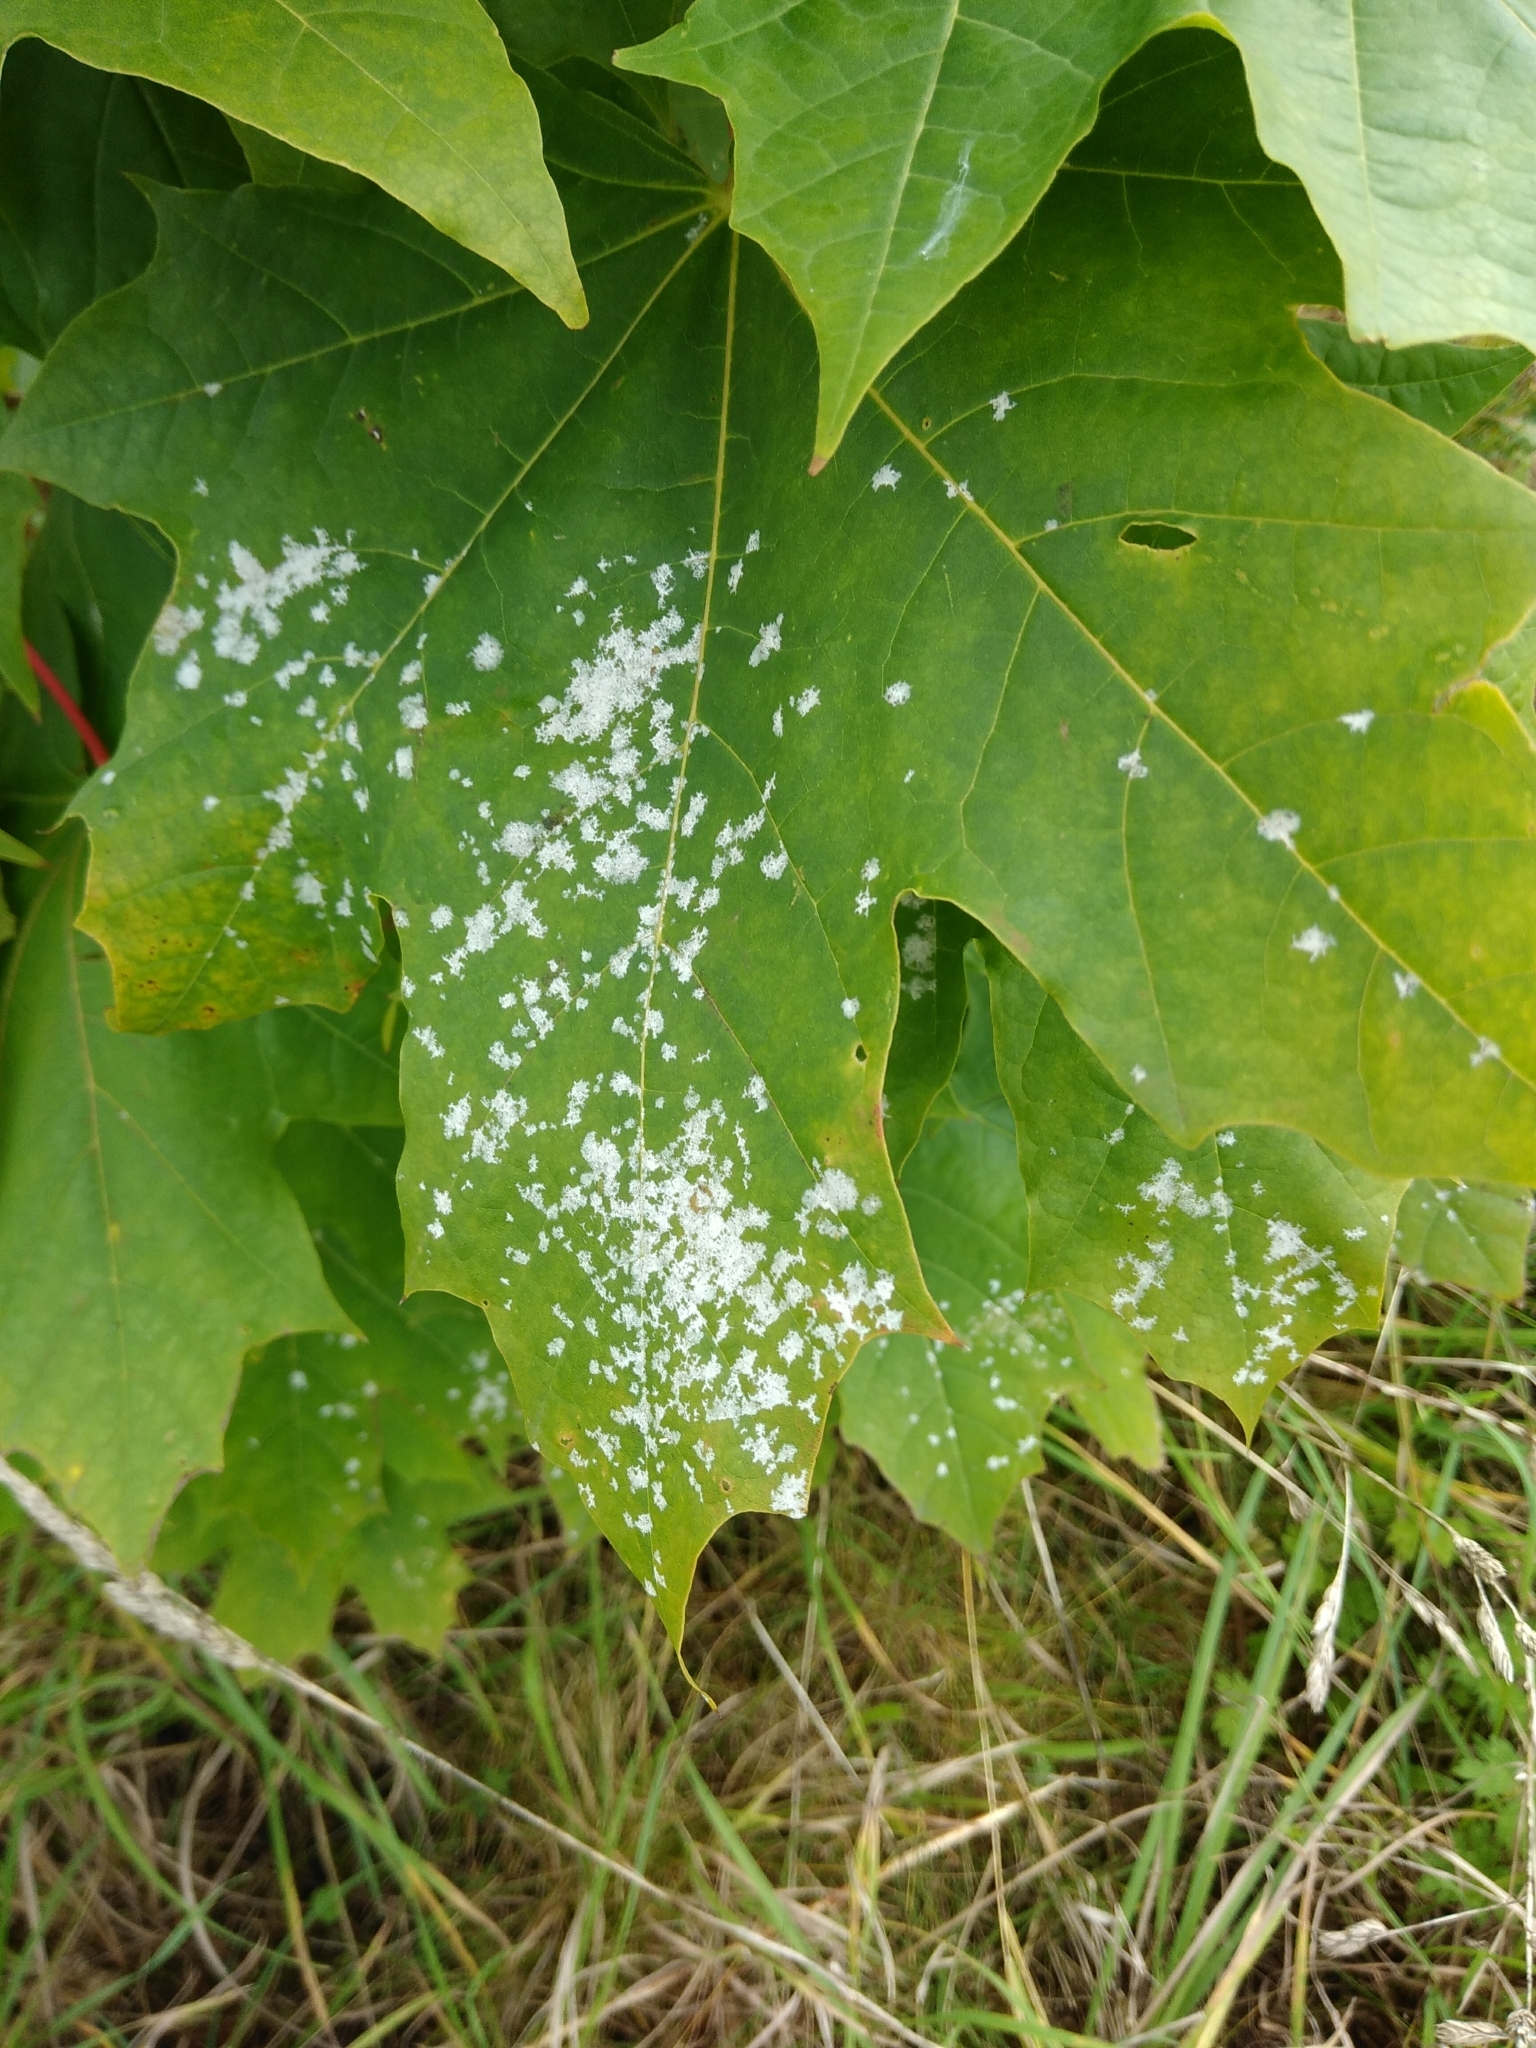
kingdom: Fungi
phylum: Ascomycota
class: Leotiomycetes
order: Helotiales
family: Erysiphaceae
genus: Sawadaea
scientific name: Sawadaea tulasnei
